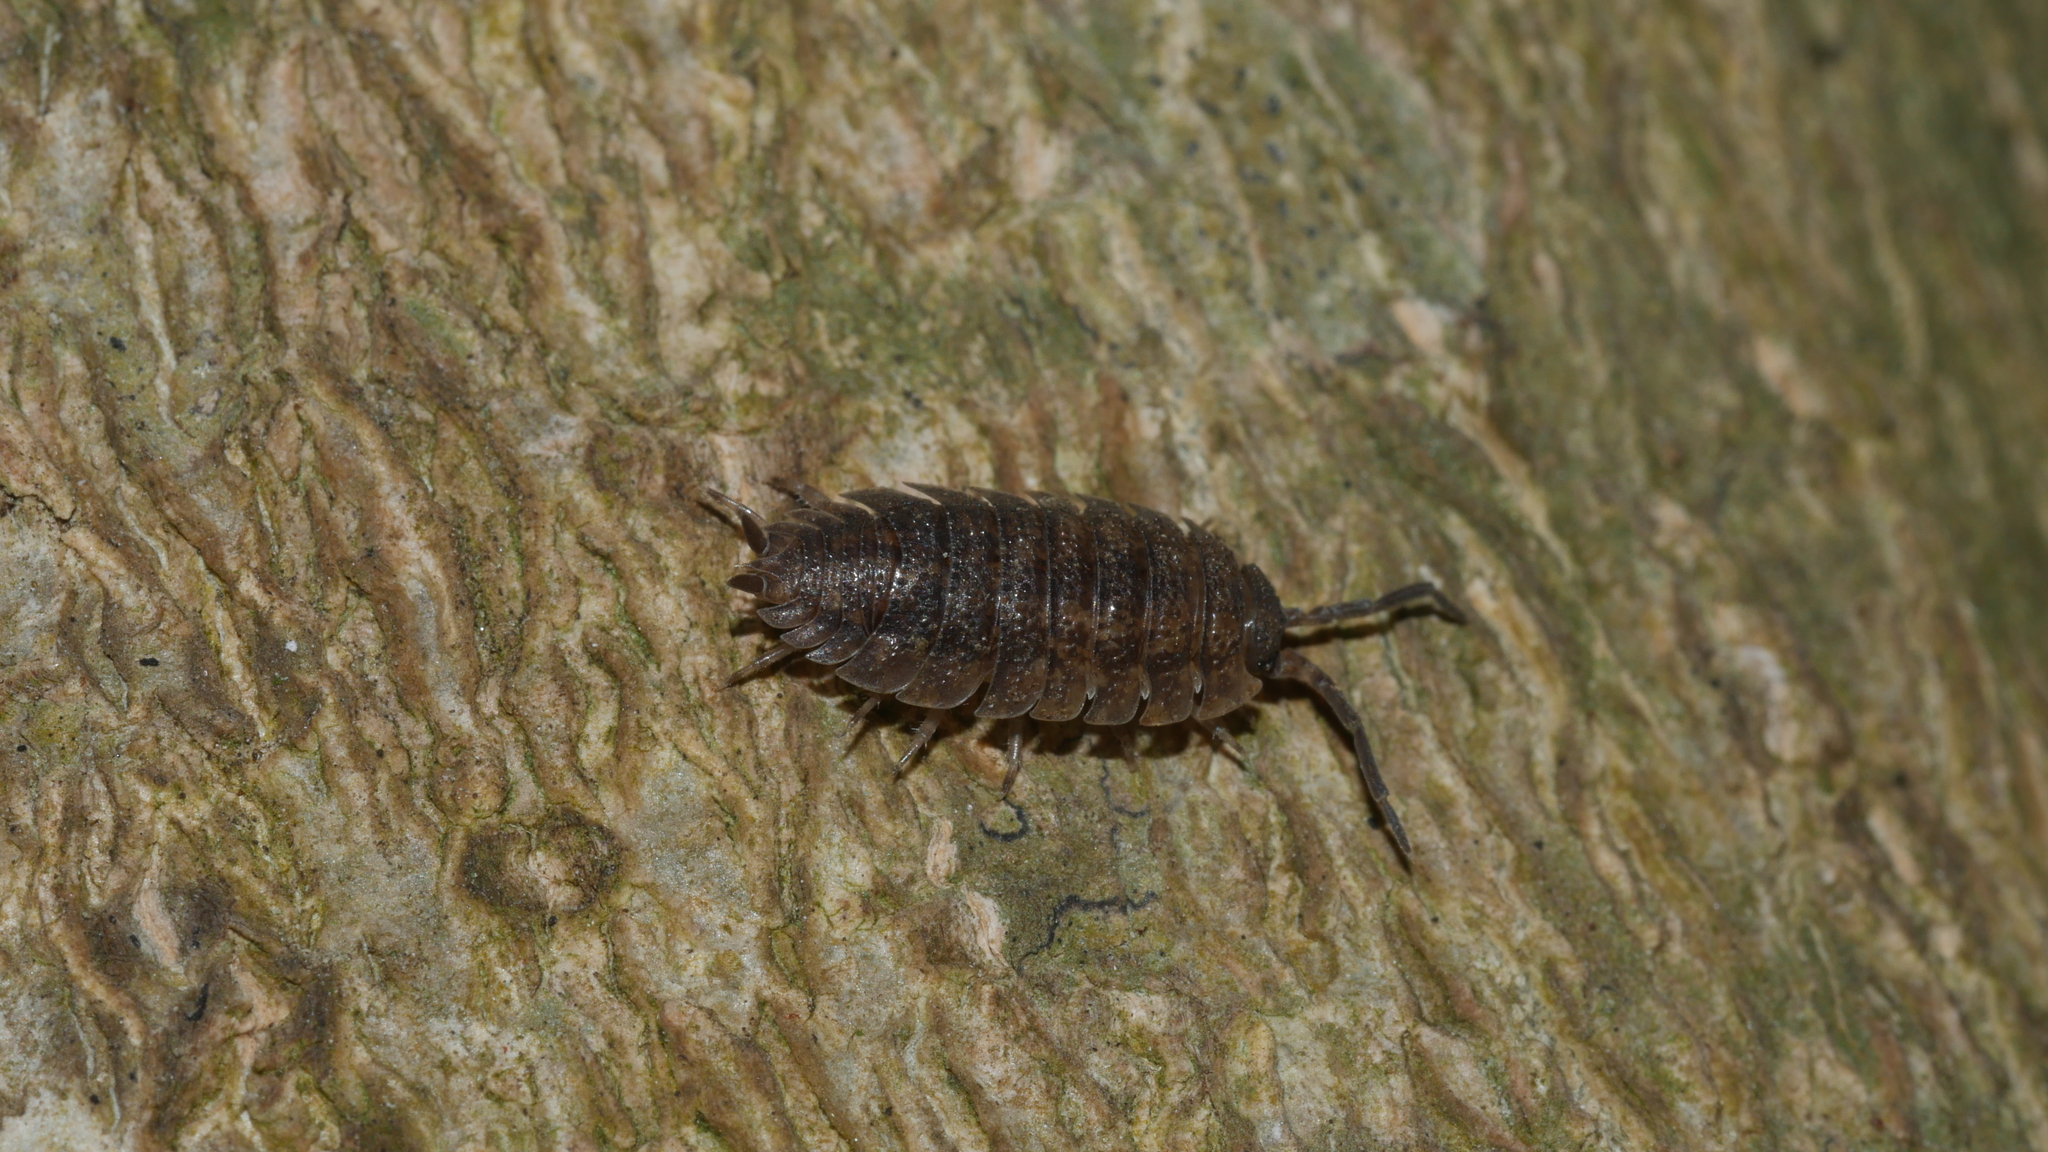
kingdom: Animalia
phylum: Arthropoda
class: Malacostraca
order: Isopoda
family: Porcellionidae
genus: Porcellio
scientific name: Porcellio scaber
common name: Common rough woodlouse
